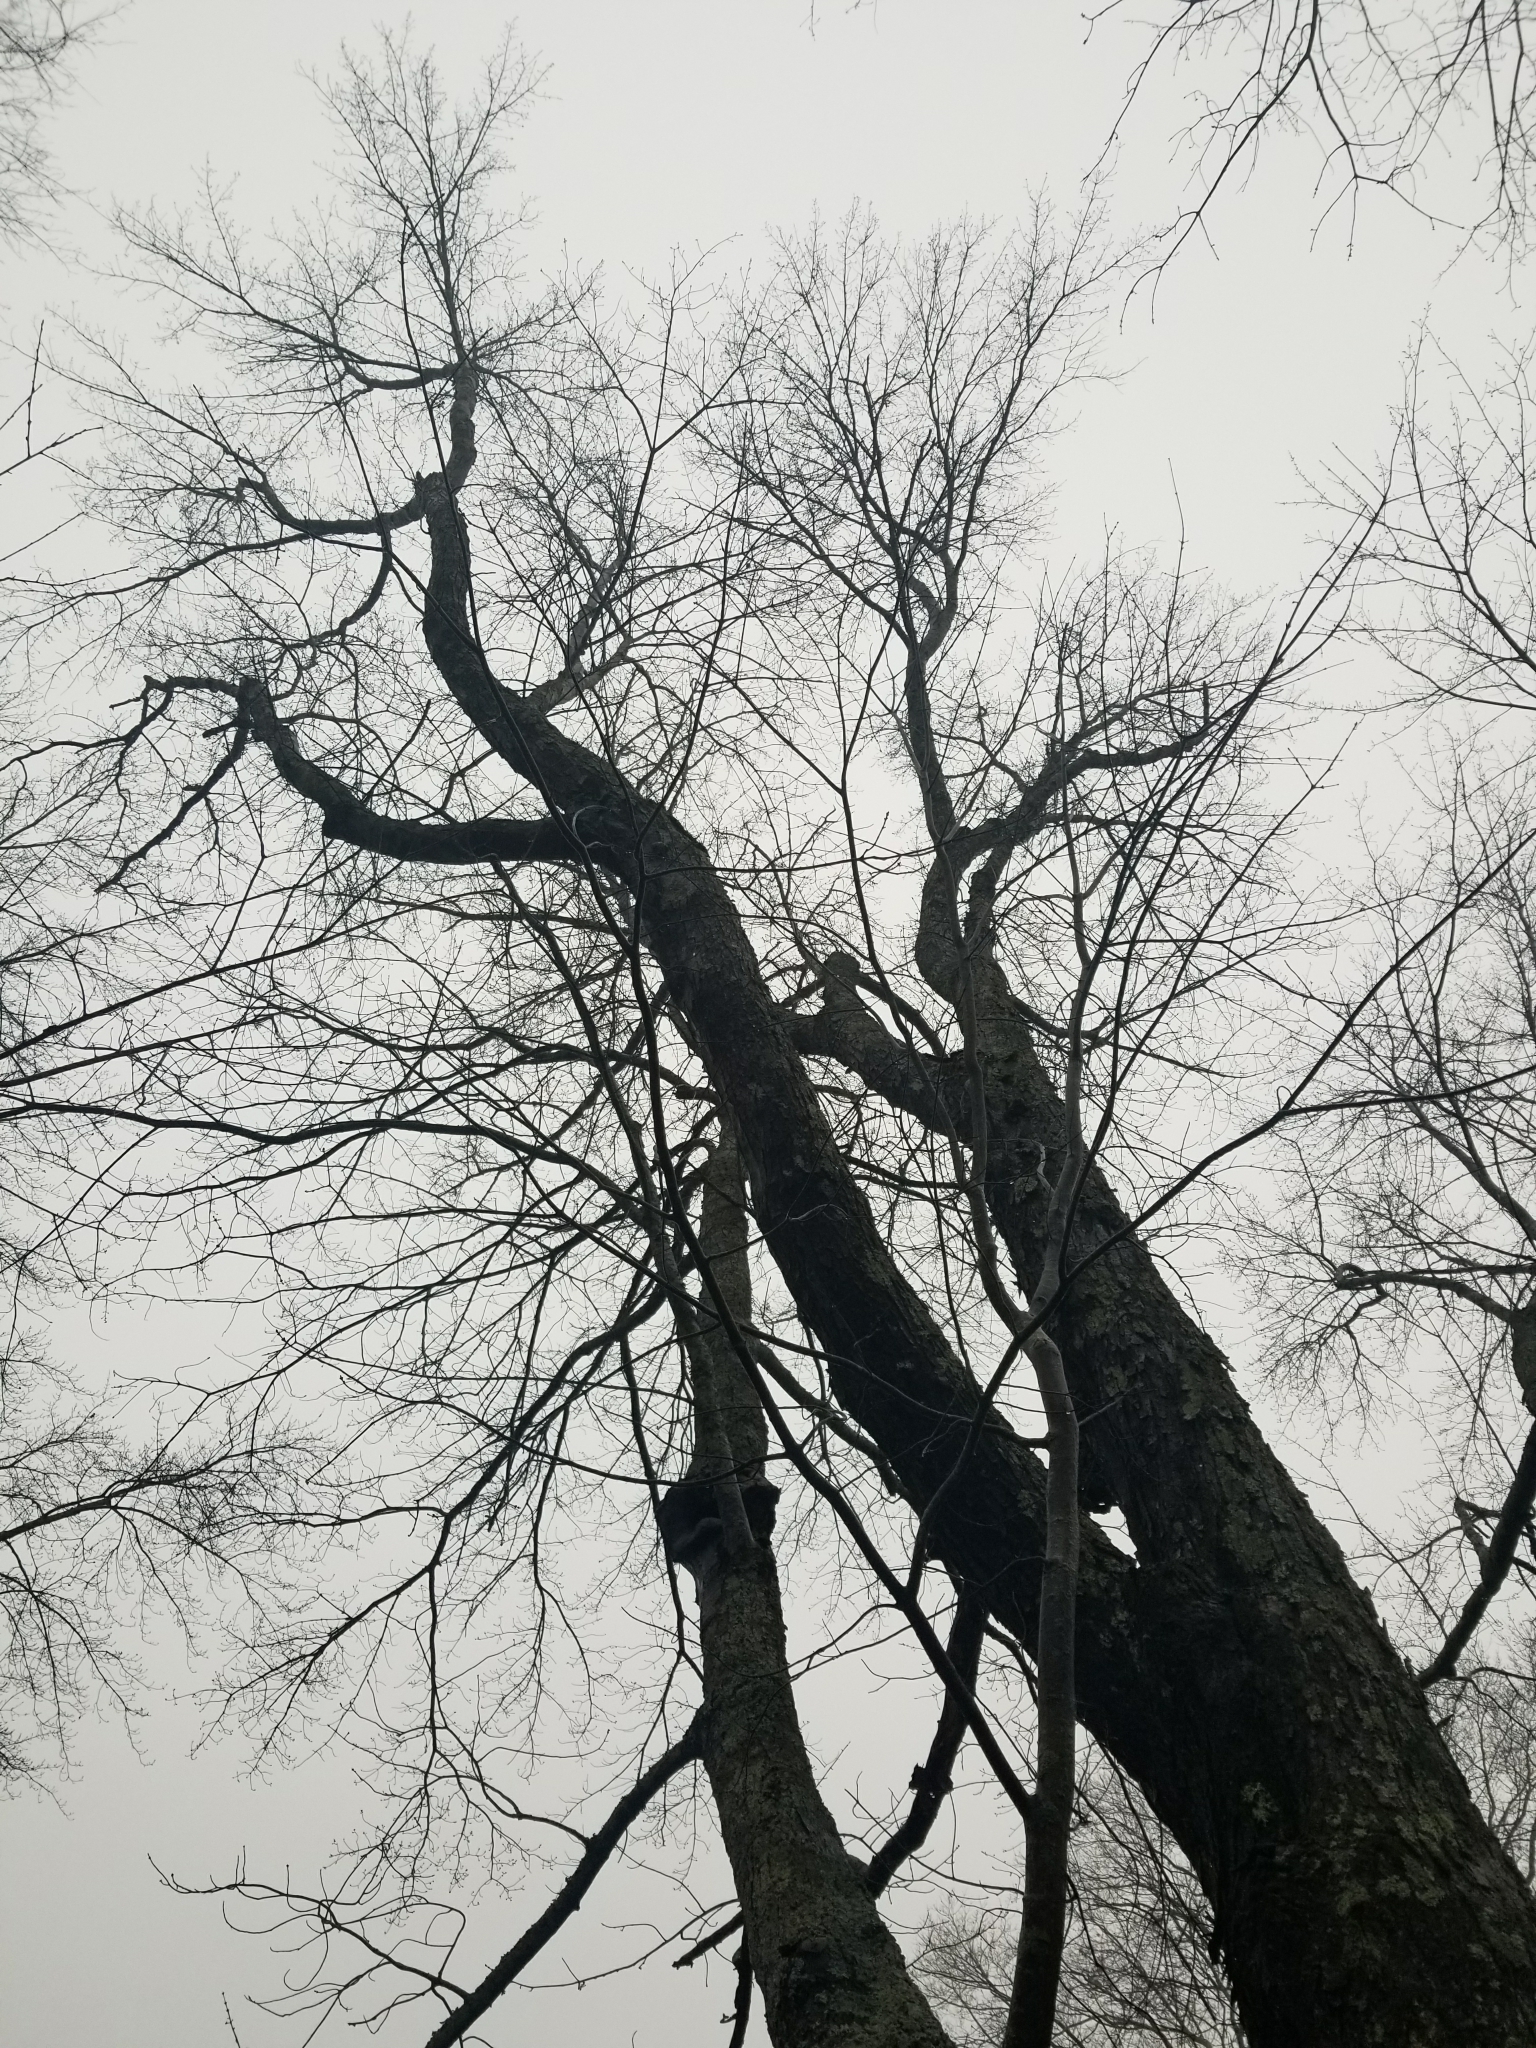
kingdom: Plantae
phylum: Tracheophyta
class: Magnoliopsida
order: Sapindales
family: Sapindaceae
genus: Acer
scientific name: Acer rubrum
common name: Red maple
